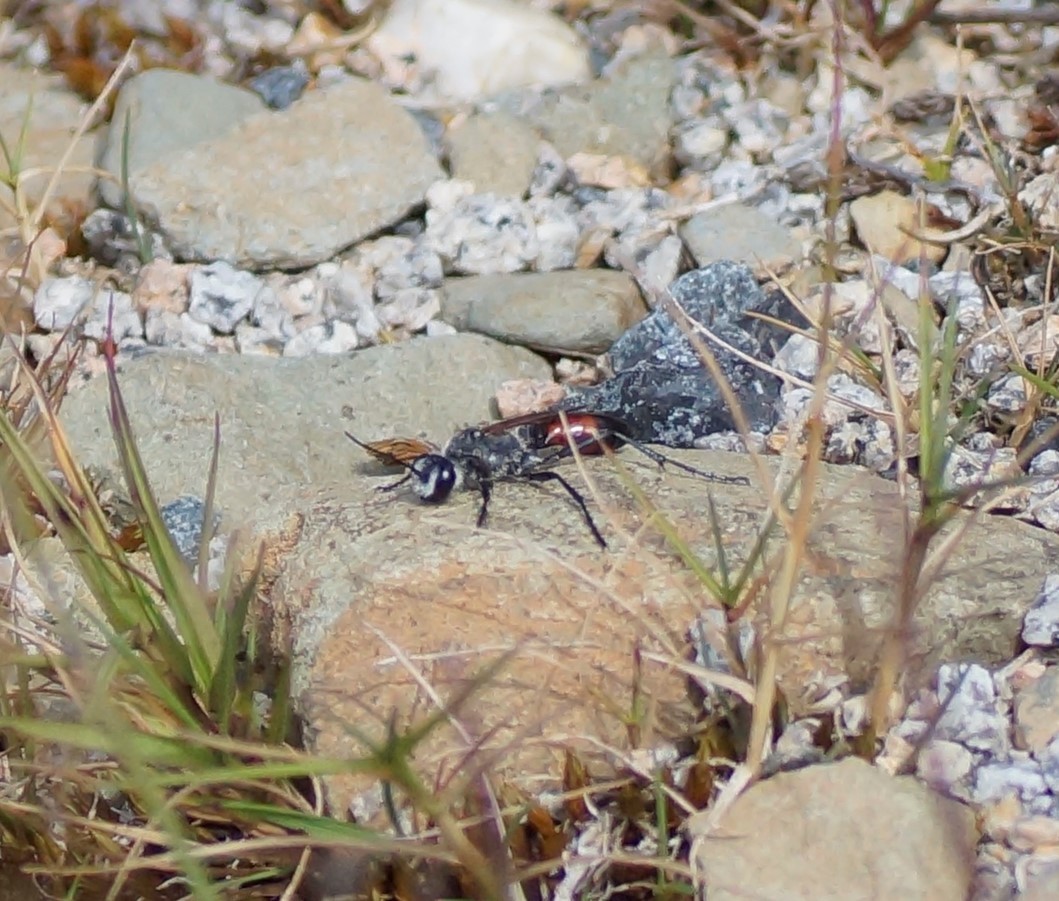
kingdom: Animalia
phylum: Arthropoda
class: Insecta
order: Hymenoptera
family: Sphecidae
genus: Podalonia
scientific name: Podalonia tydei
